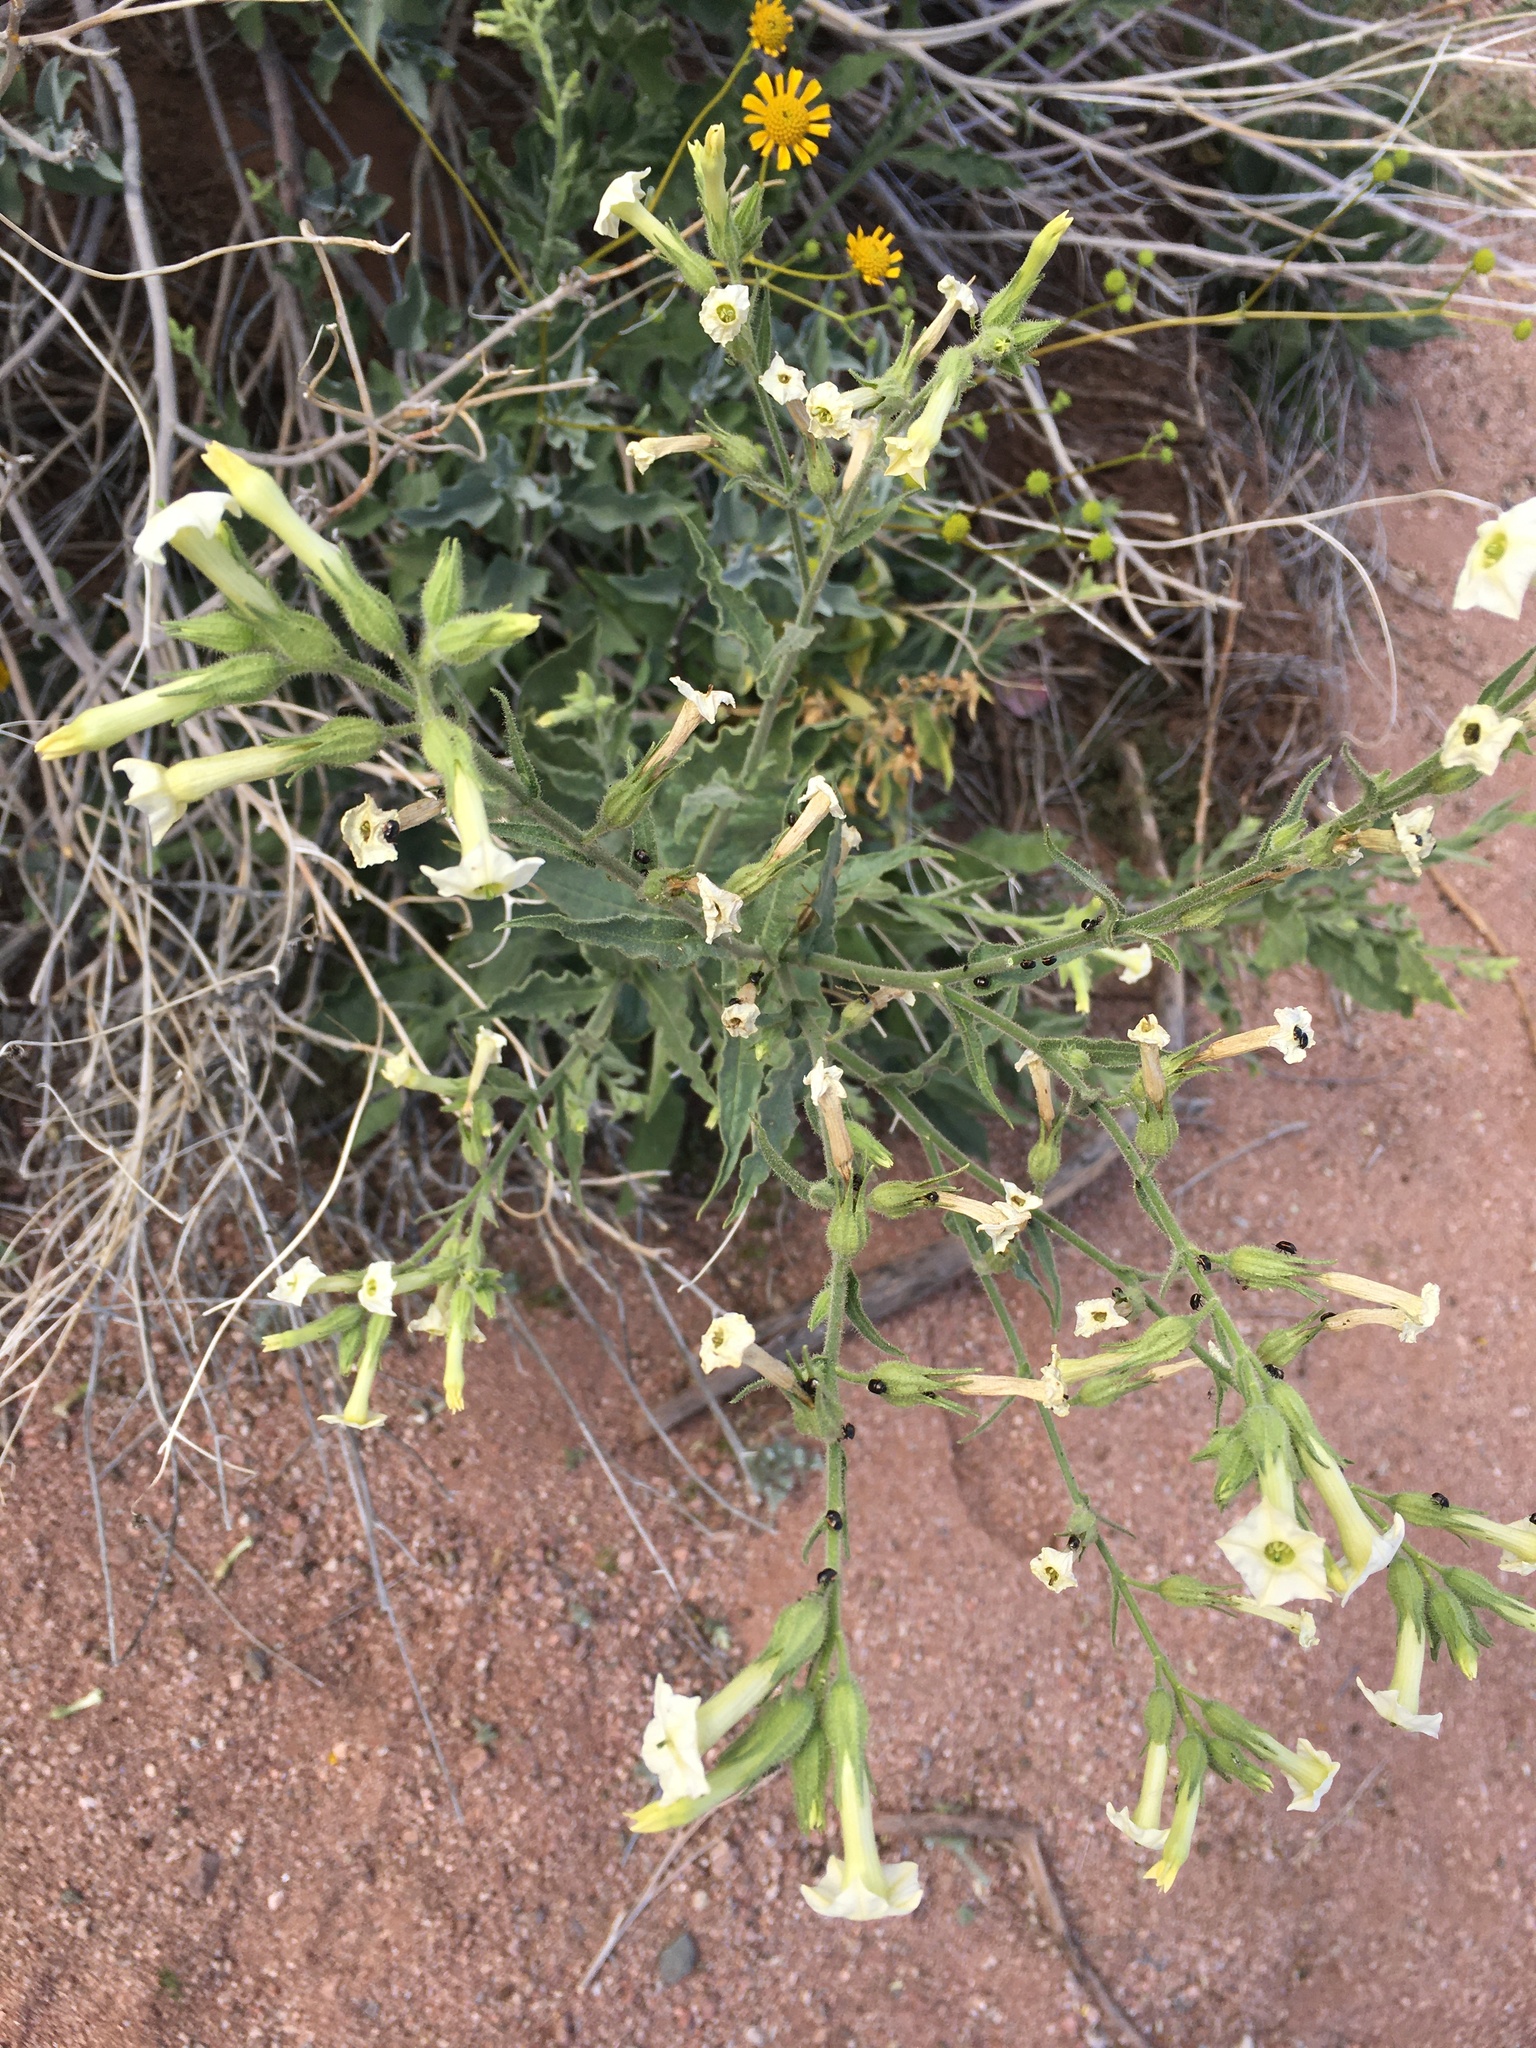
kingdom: Plantae
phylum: Tracheophyta
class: Magnoliopsida
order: Solanales
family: Solanaceae
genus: Nicotiana
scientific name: Nicotiana obtusifolia
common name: Desert tobacco
